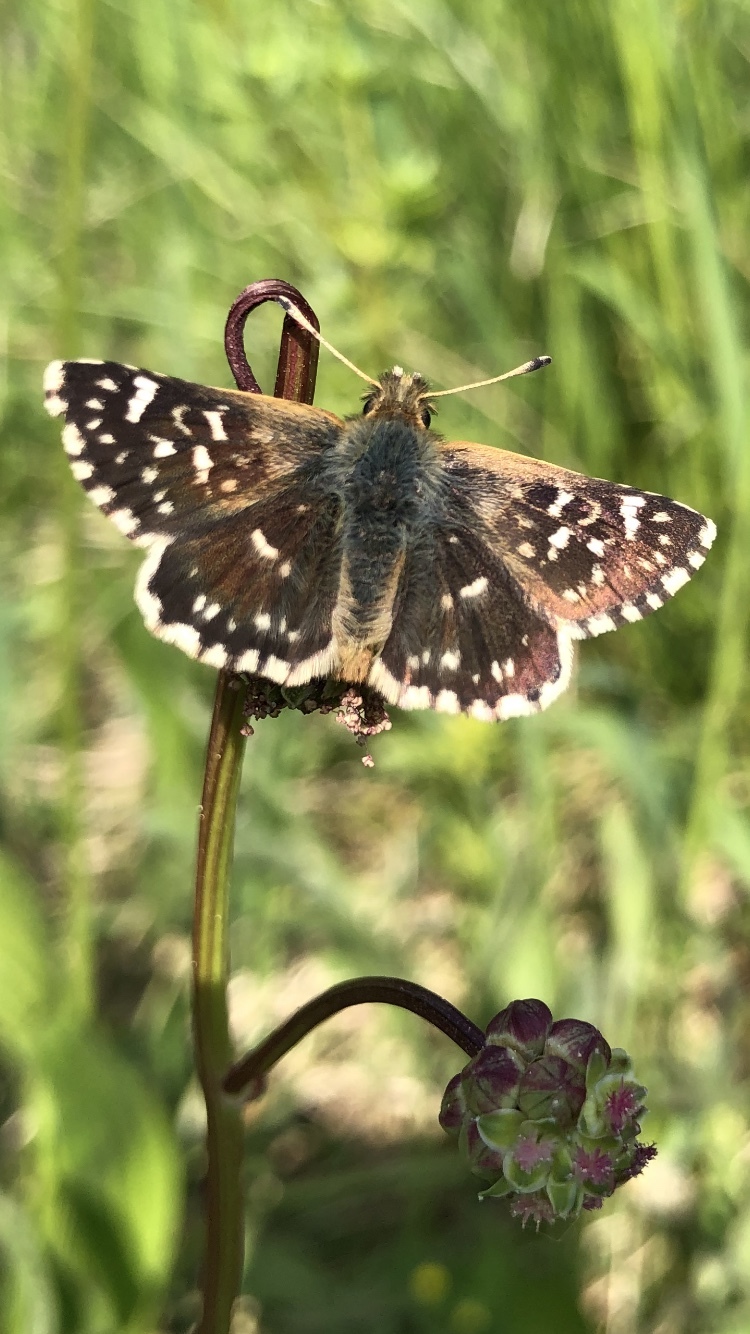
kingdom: Animalia
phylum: Arthropoda
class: Insecta
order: Lepidoptera
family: Hesperiidae
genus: Spialia
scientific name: Spialia sertorius
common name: Red underwing skipper
